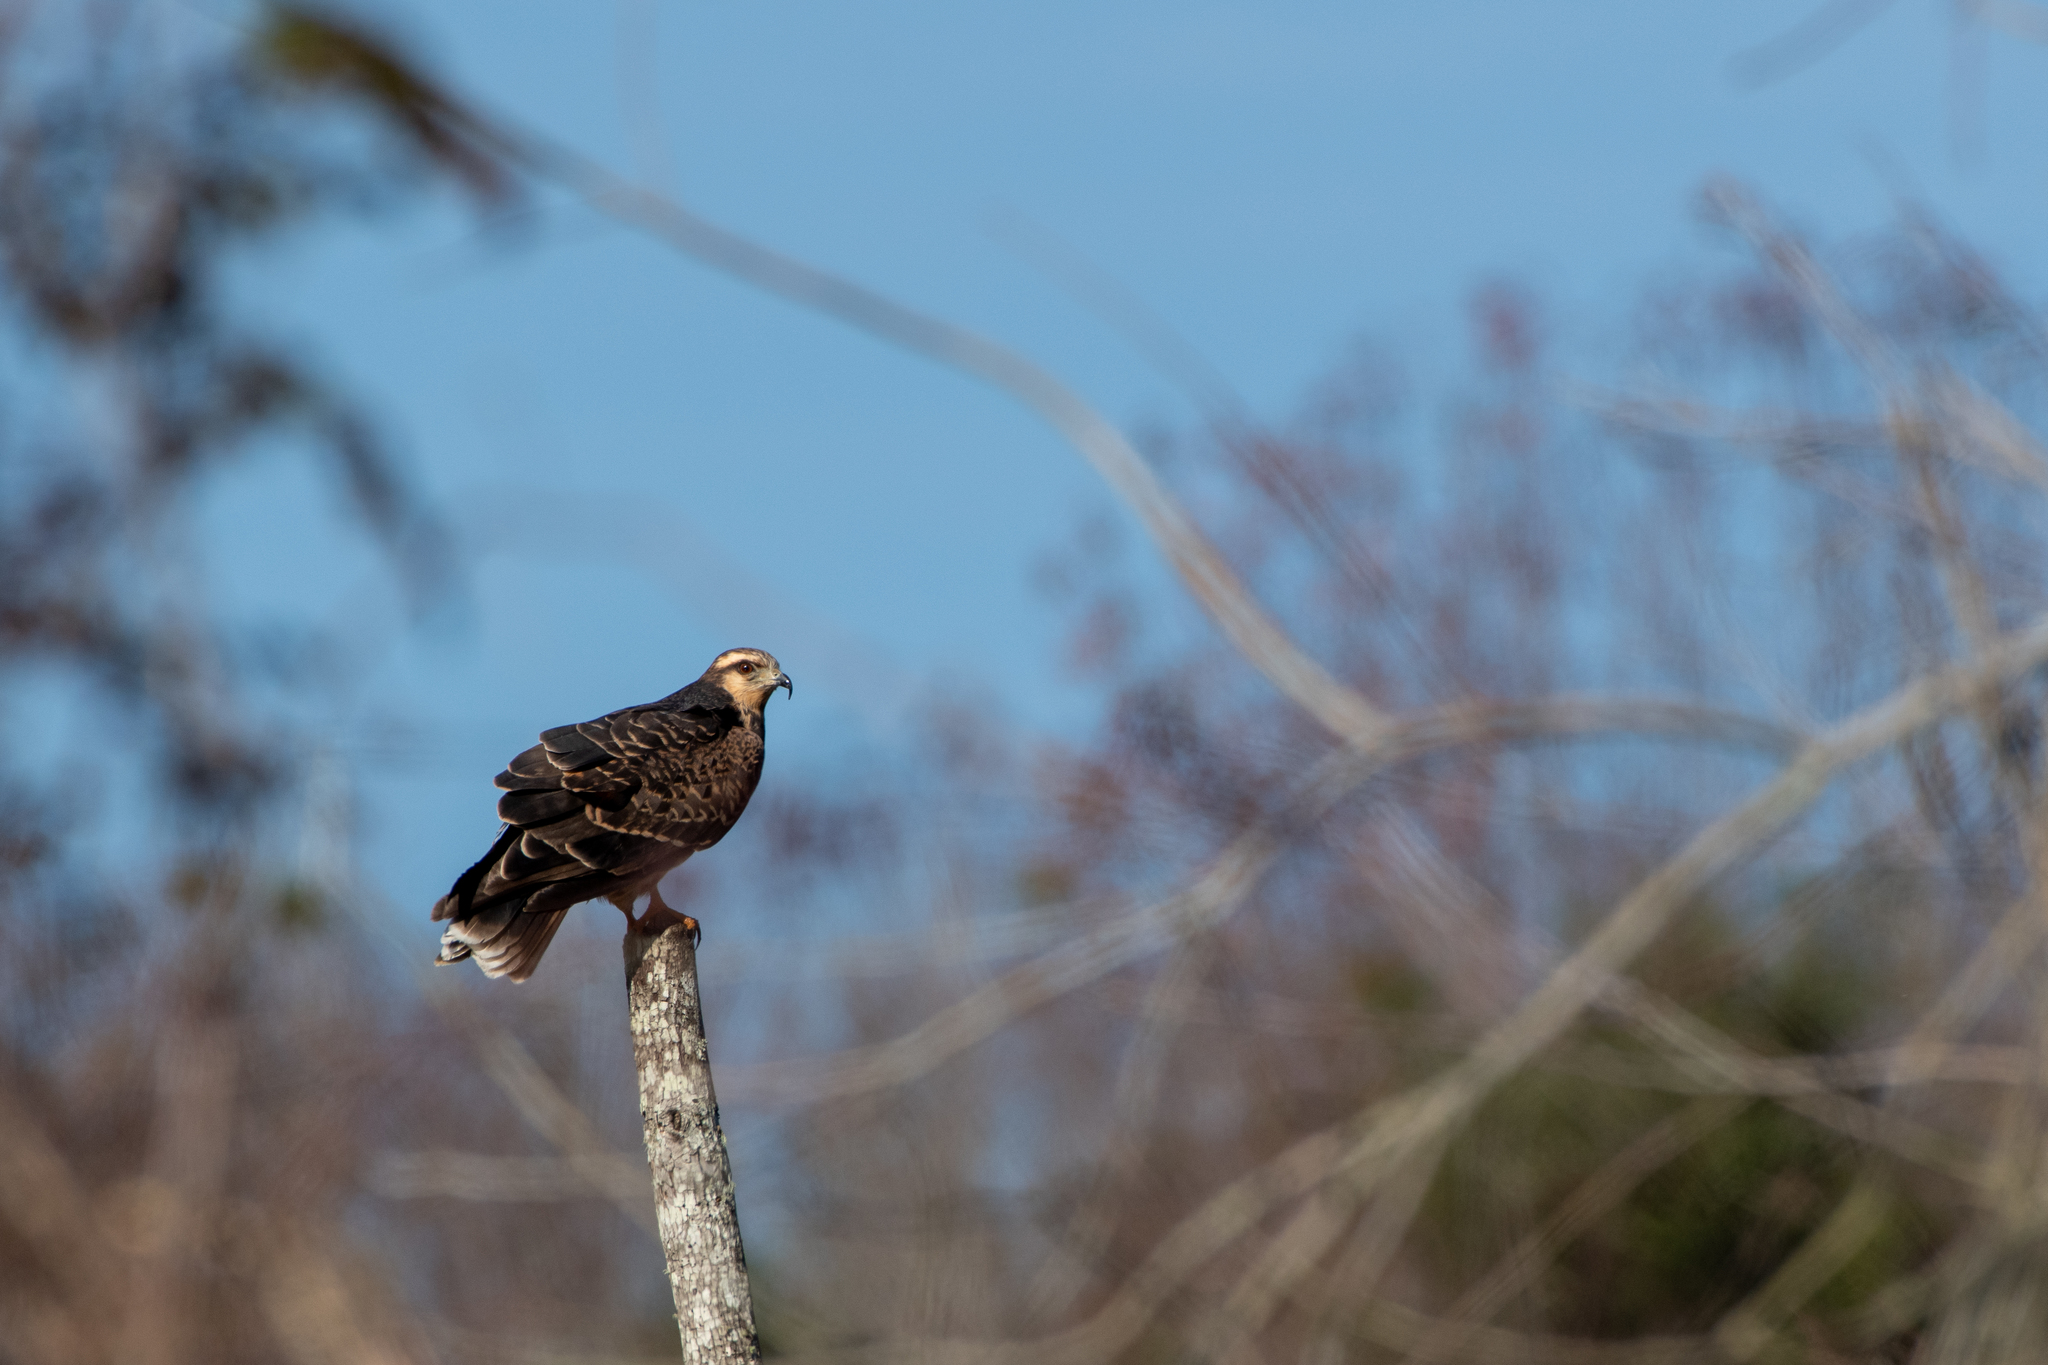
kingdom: Animalia
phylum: Chordata
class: Aves
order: Accipitriformes
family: Accipitridae
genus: Rostrhamus
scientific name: Rostrhamus sociabilis
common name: Snail kite
